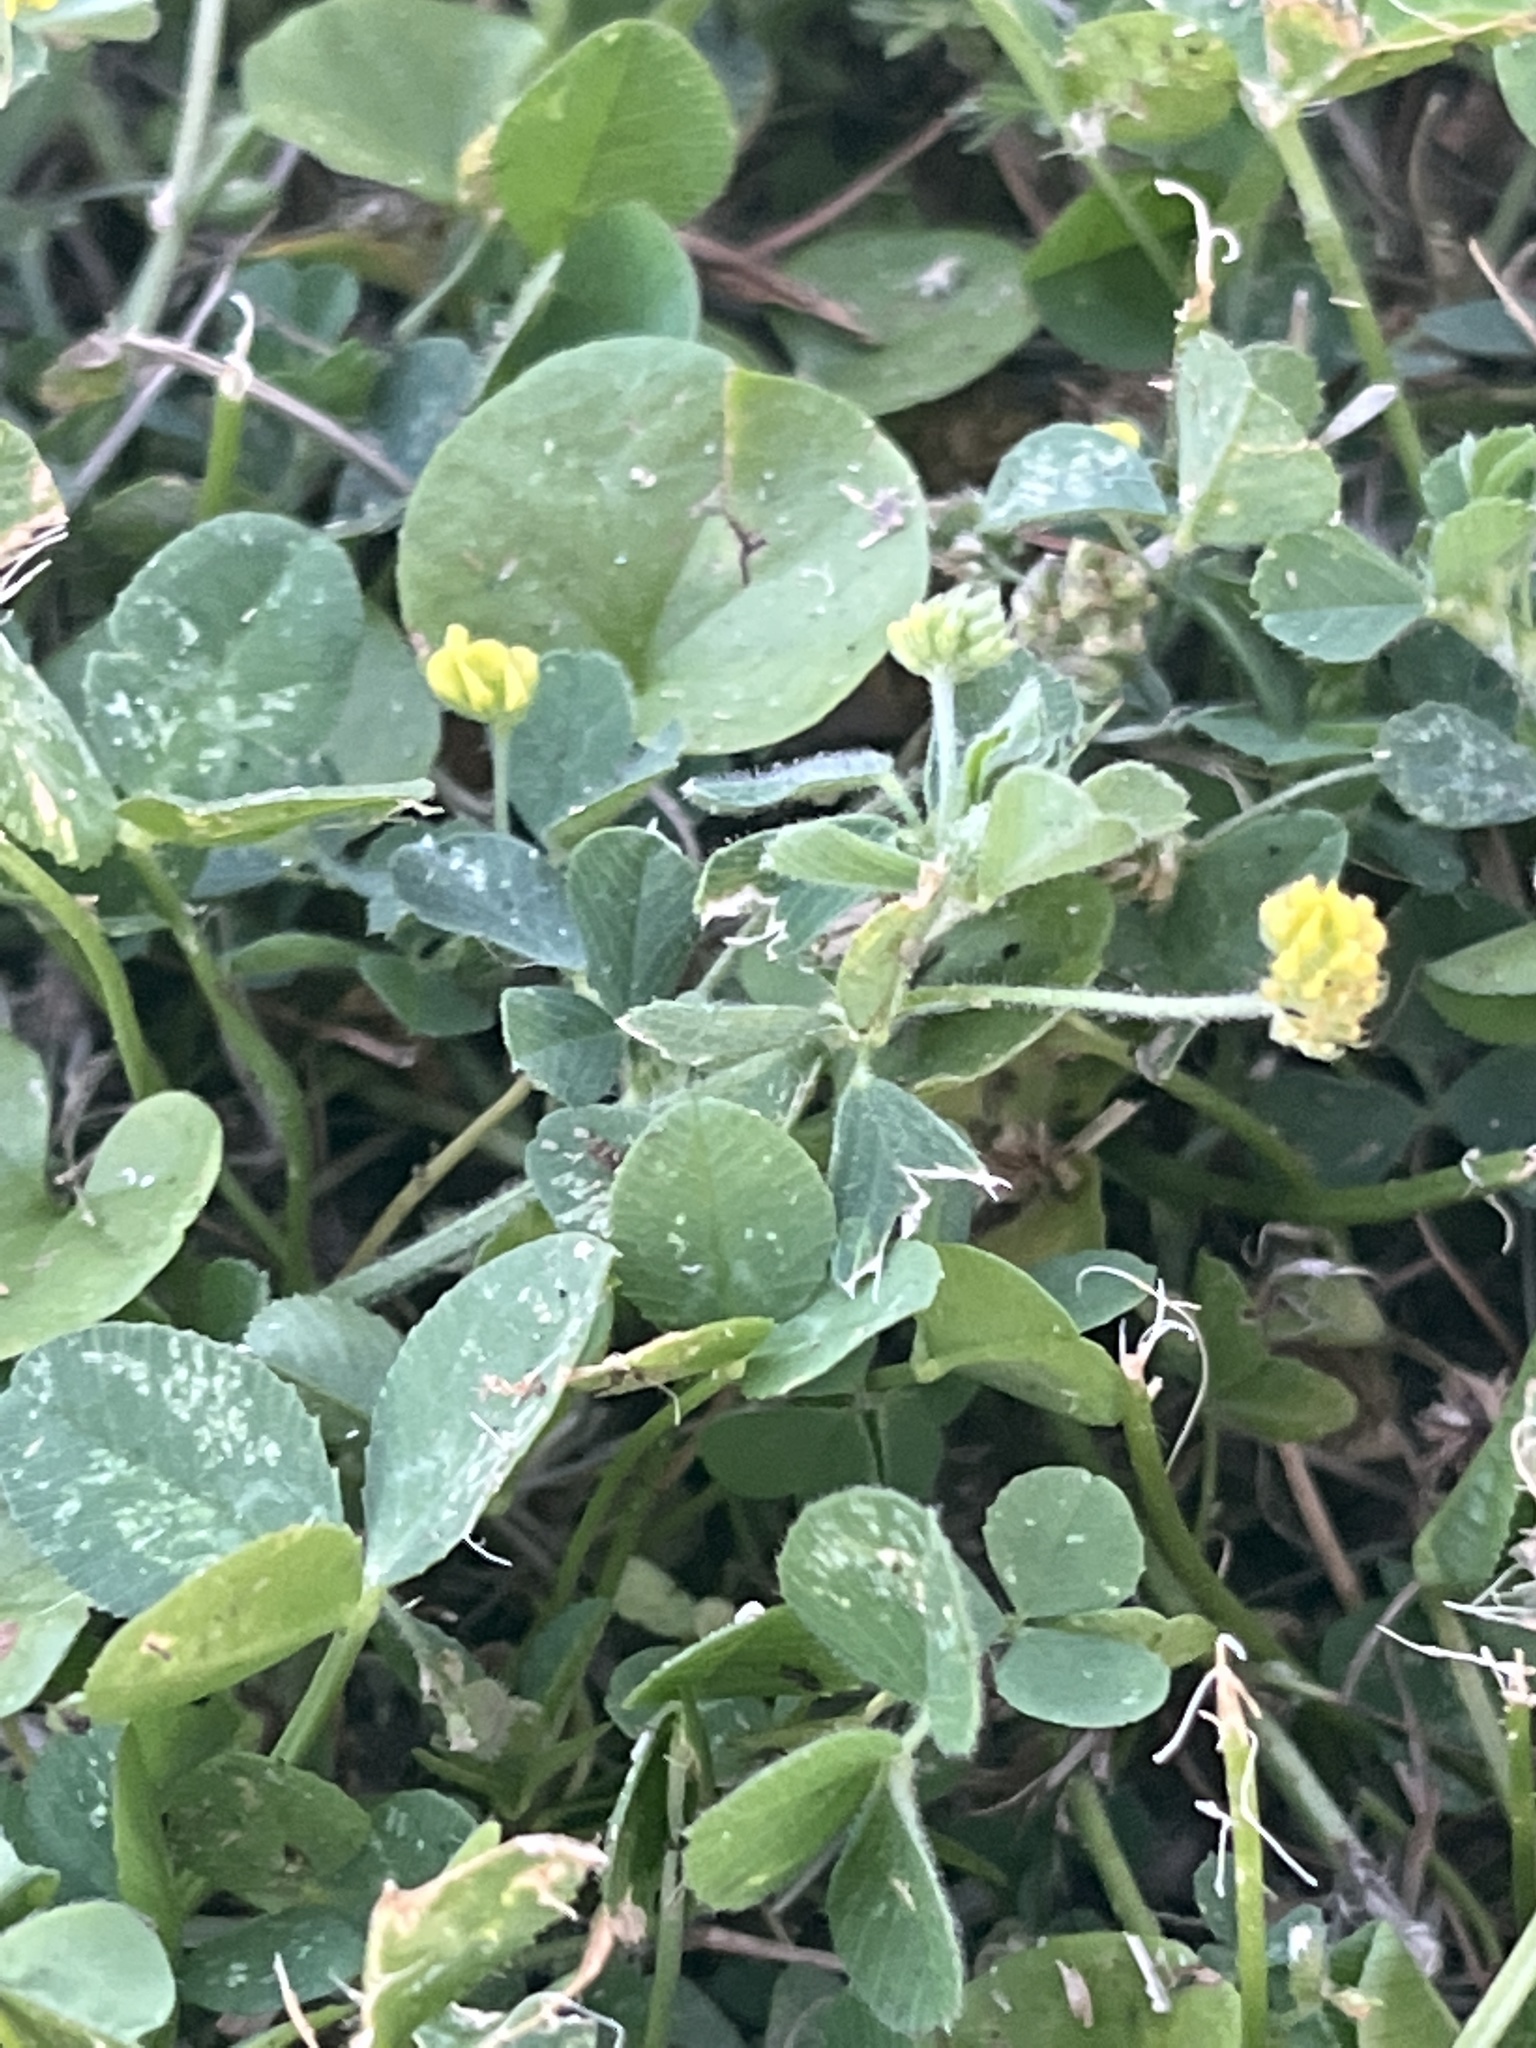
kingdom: Plantae
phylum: Tracheophyta
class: Magnoliopsida
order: Fabales
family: Fabaceae
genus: Medicago
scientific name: Medicago lupulina
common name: Black medick
